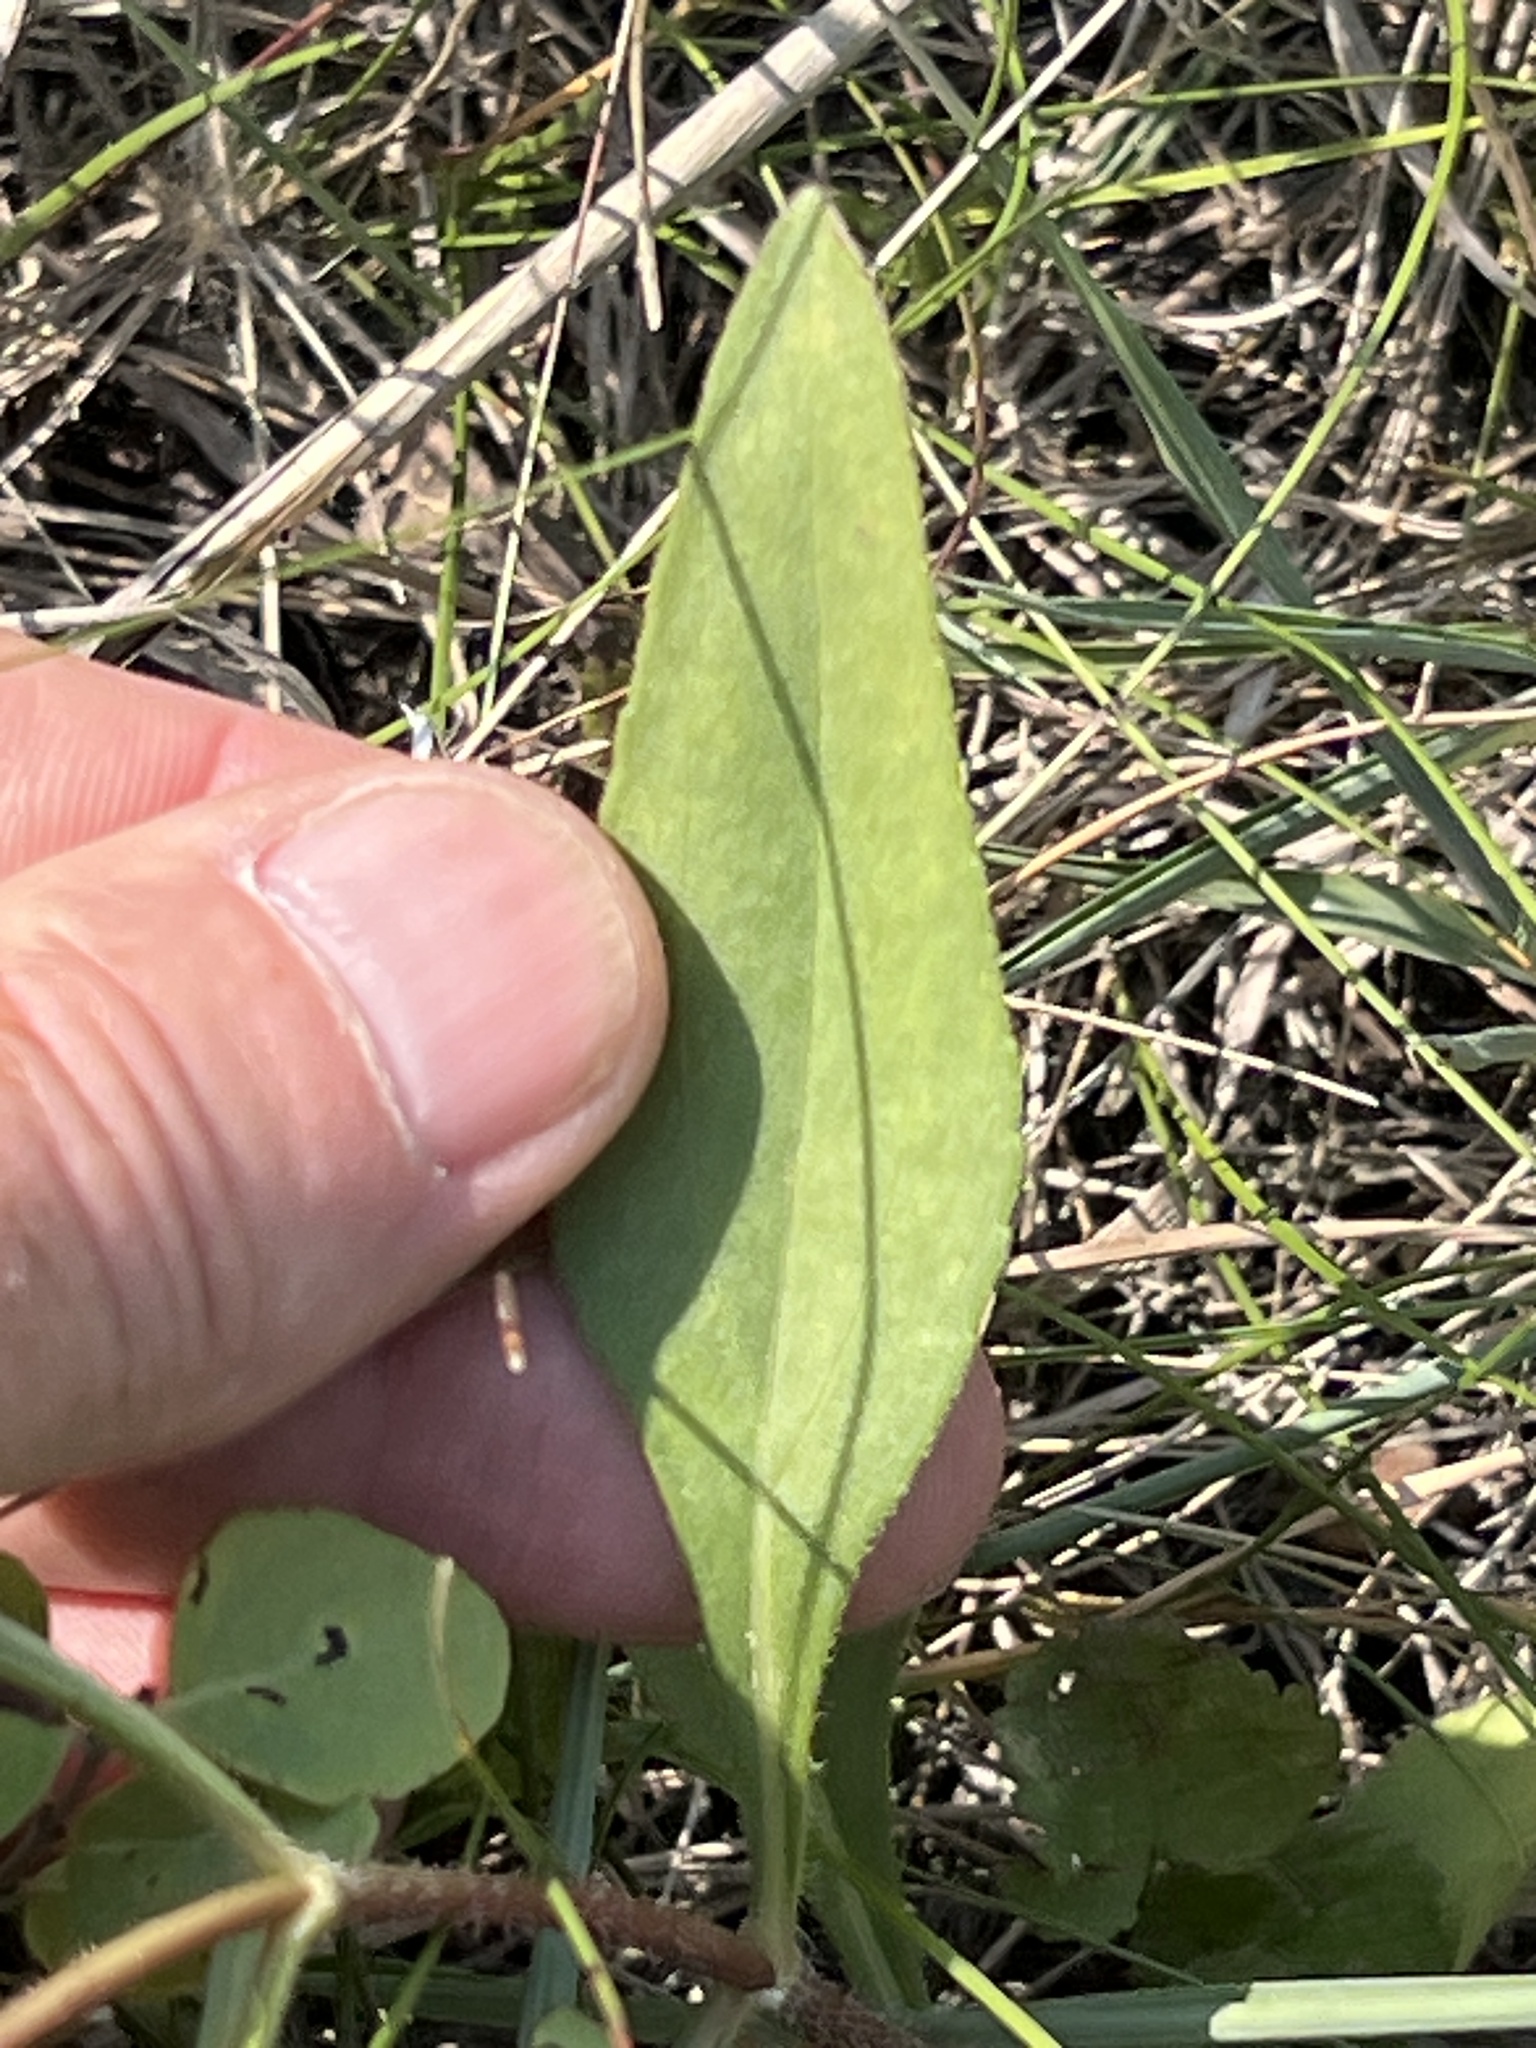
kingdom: Plantae
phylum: Tracheophyta
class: Magnoliopsida
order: Asterales
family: Asteraceae
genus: Helianthus
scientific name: Helianthus pauciflorus
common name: Stiff sunflower
